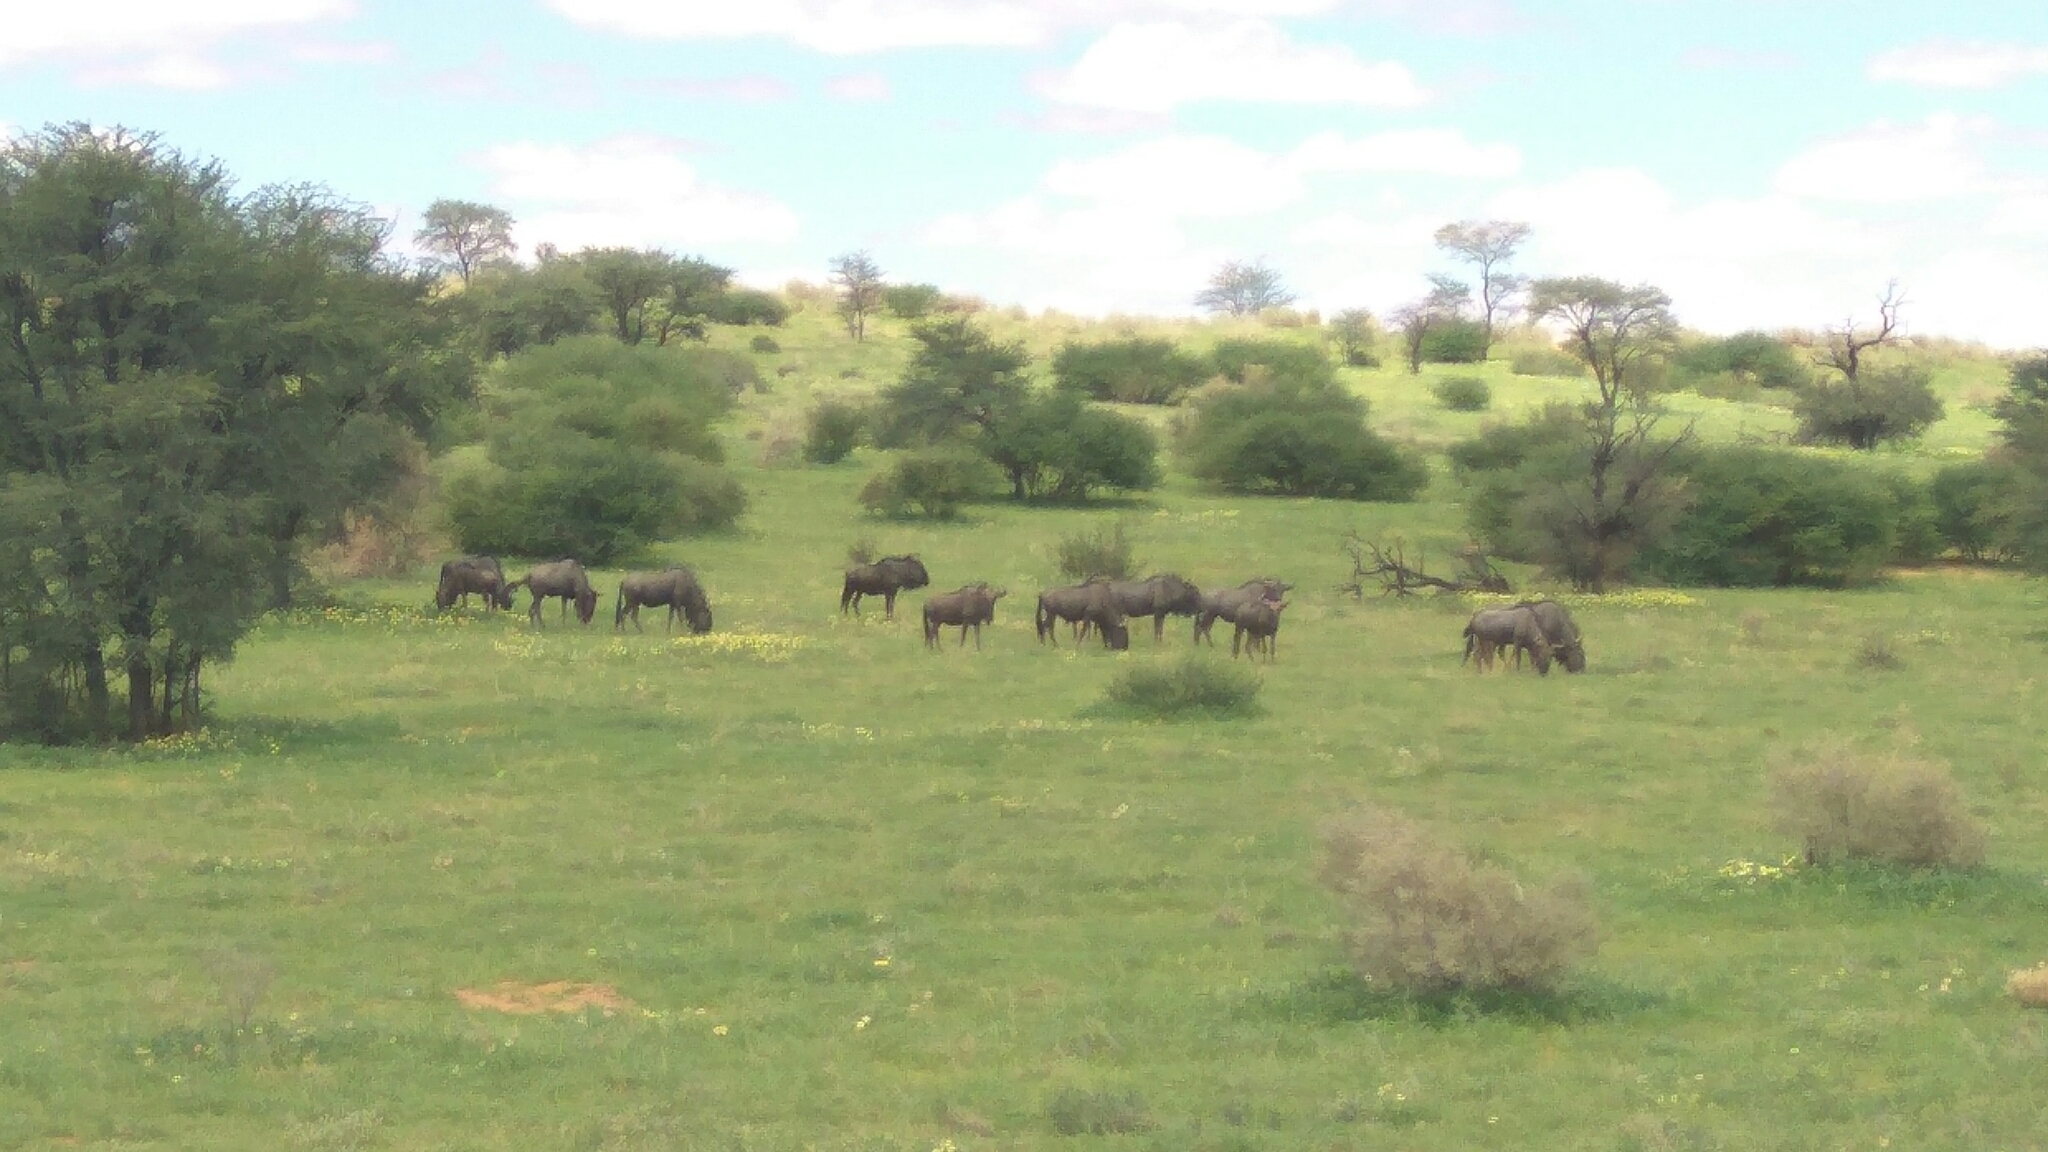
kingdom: Animalia
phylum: Chordata
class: Mammalia
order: Artiodactyla
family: Bovidae
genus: Connochaetes
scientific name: Connochaetes taurinus
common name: Blue wildebeest
